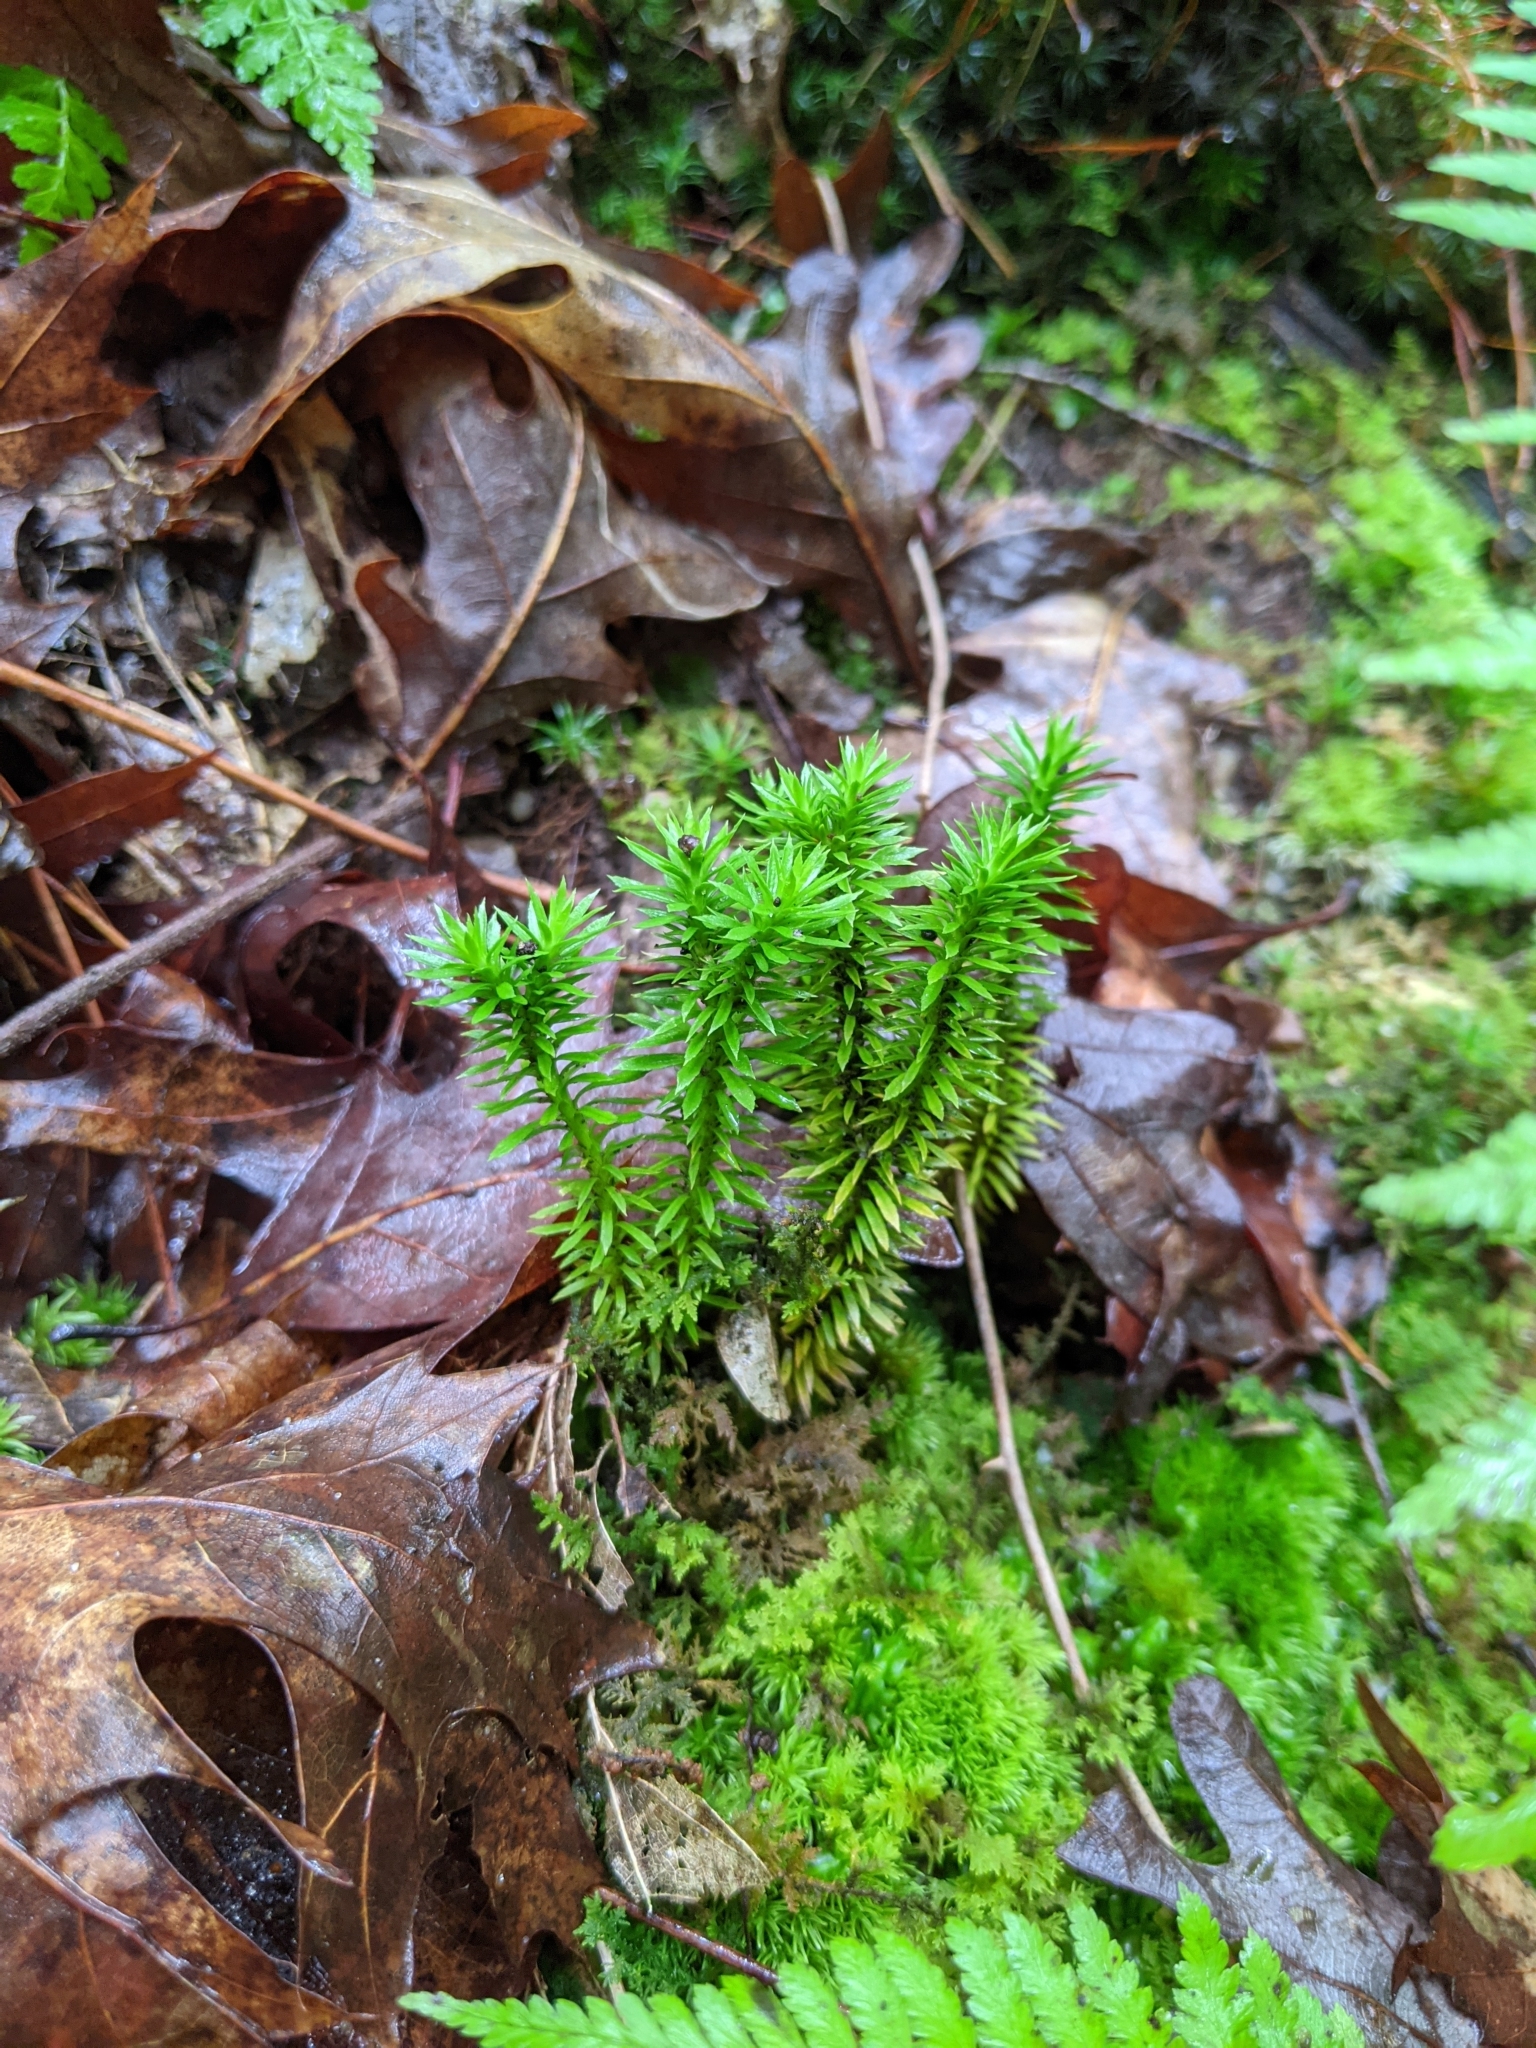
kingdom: Plantae
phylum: Tracheophyta
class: Lycopodiopsida
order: Lycopodiales
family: Lycopodiaceae
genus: Huperzia
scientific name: Huperzia lucidula
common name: Shining clubmoss
